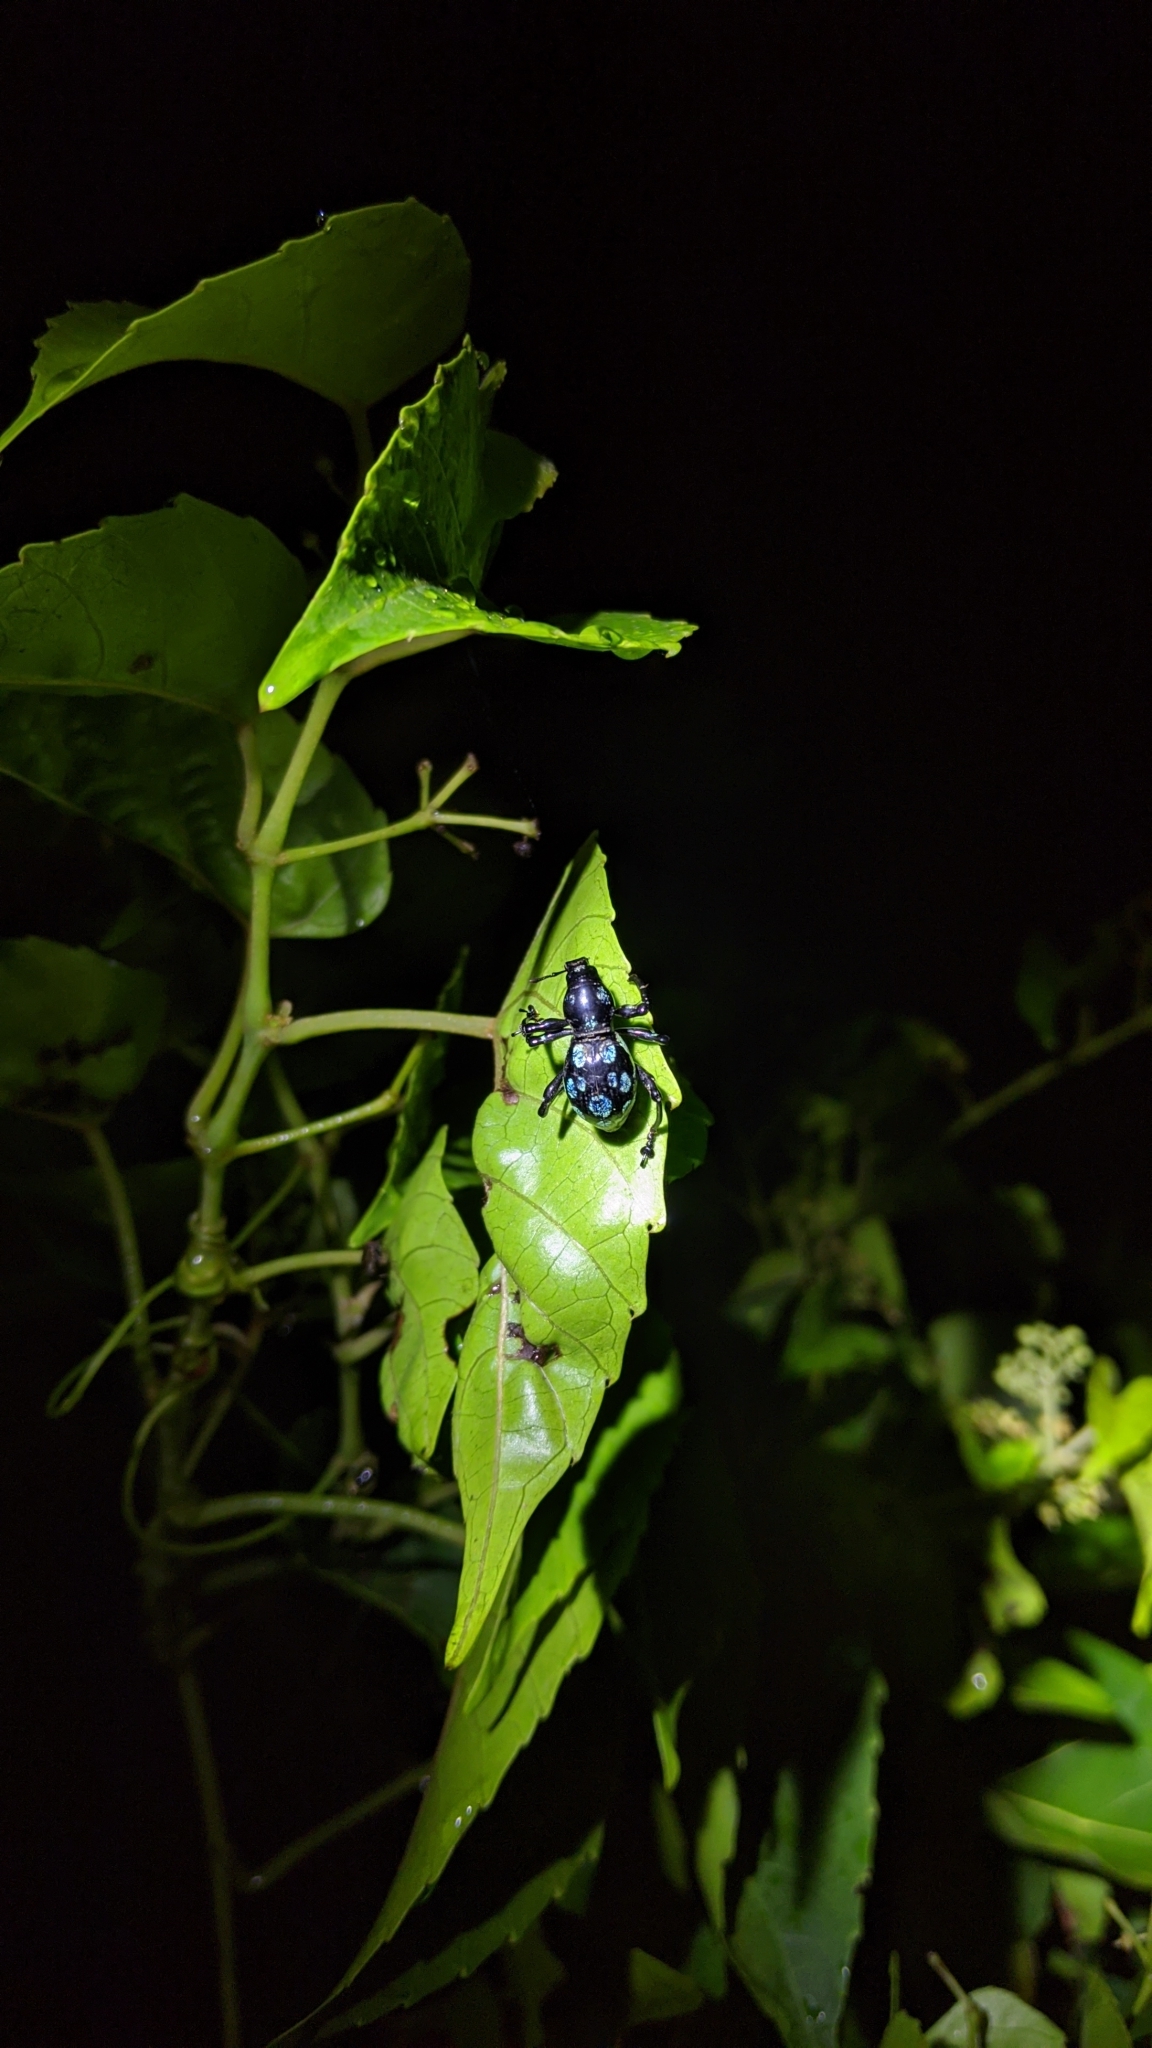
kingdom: Animalia
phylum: Arthropoda
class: Insecta
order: Coleoptera
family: Curculionidae
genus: Pachyrhynchus
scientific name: Pachyrhynchus sarcitis
